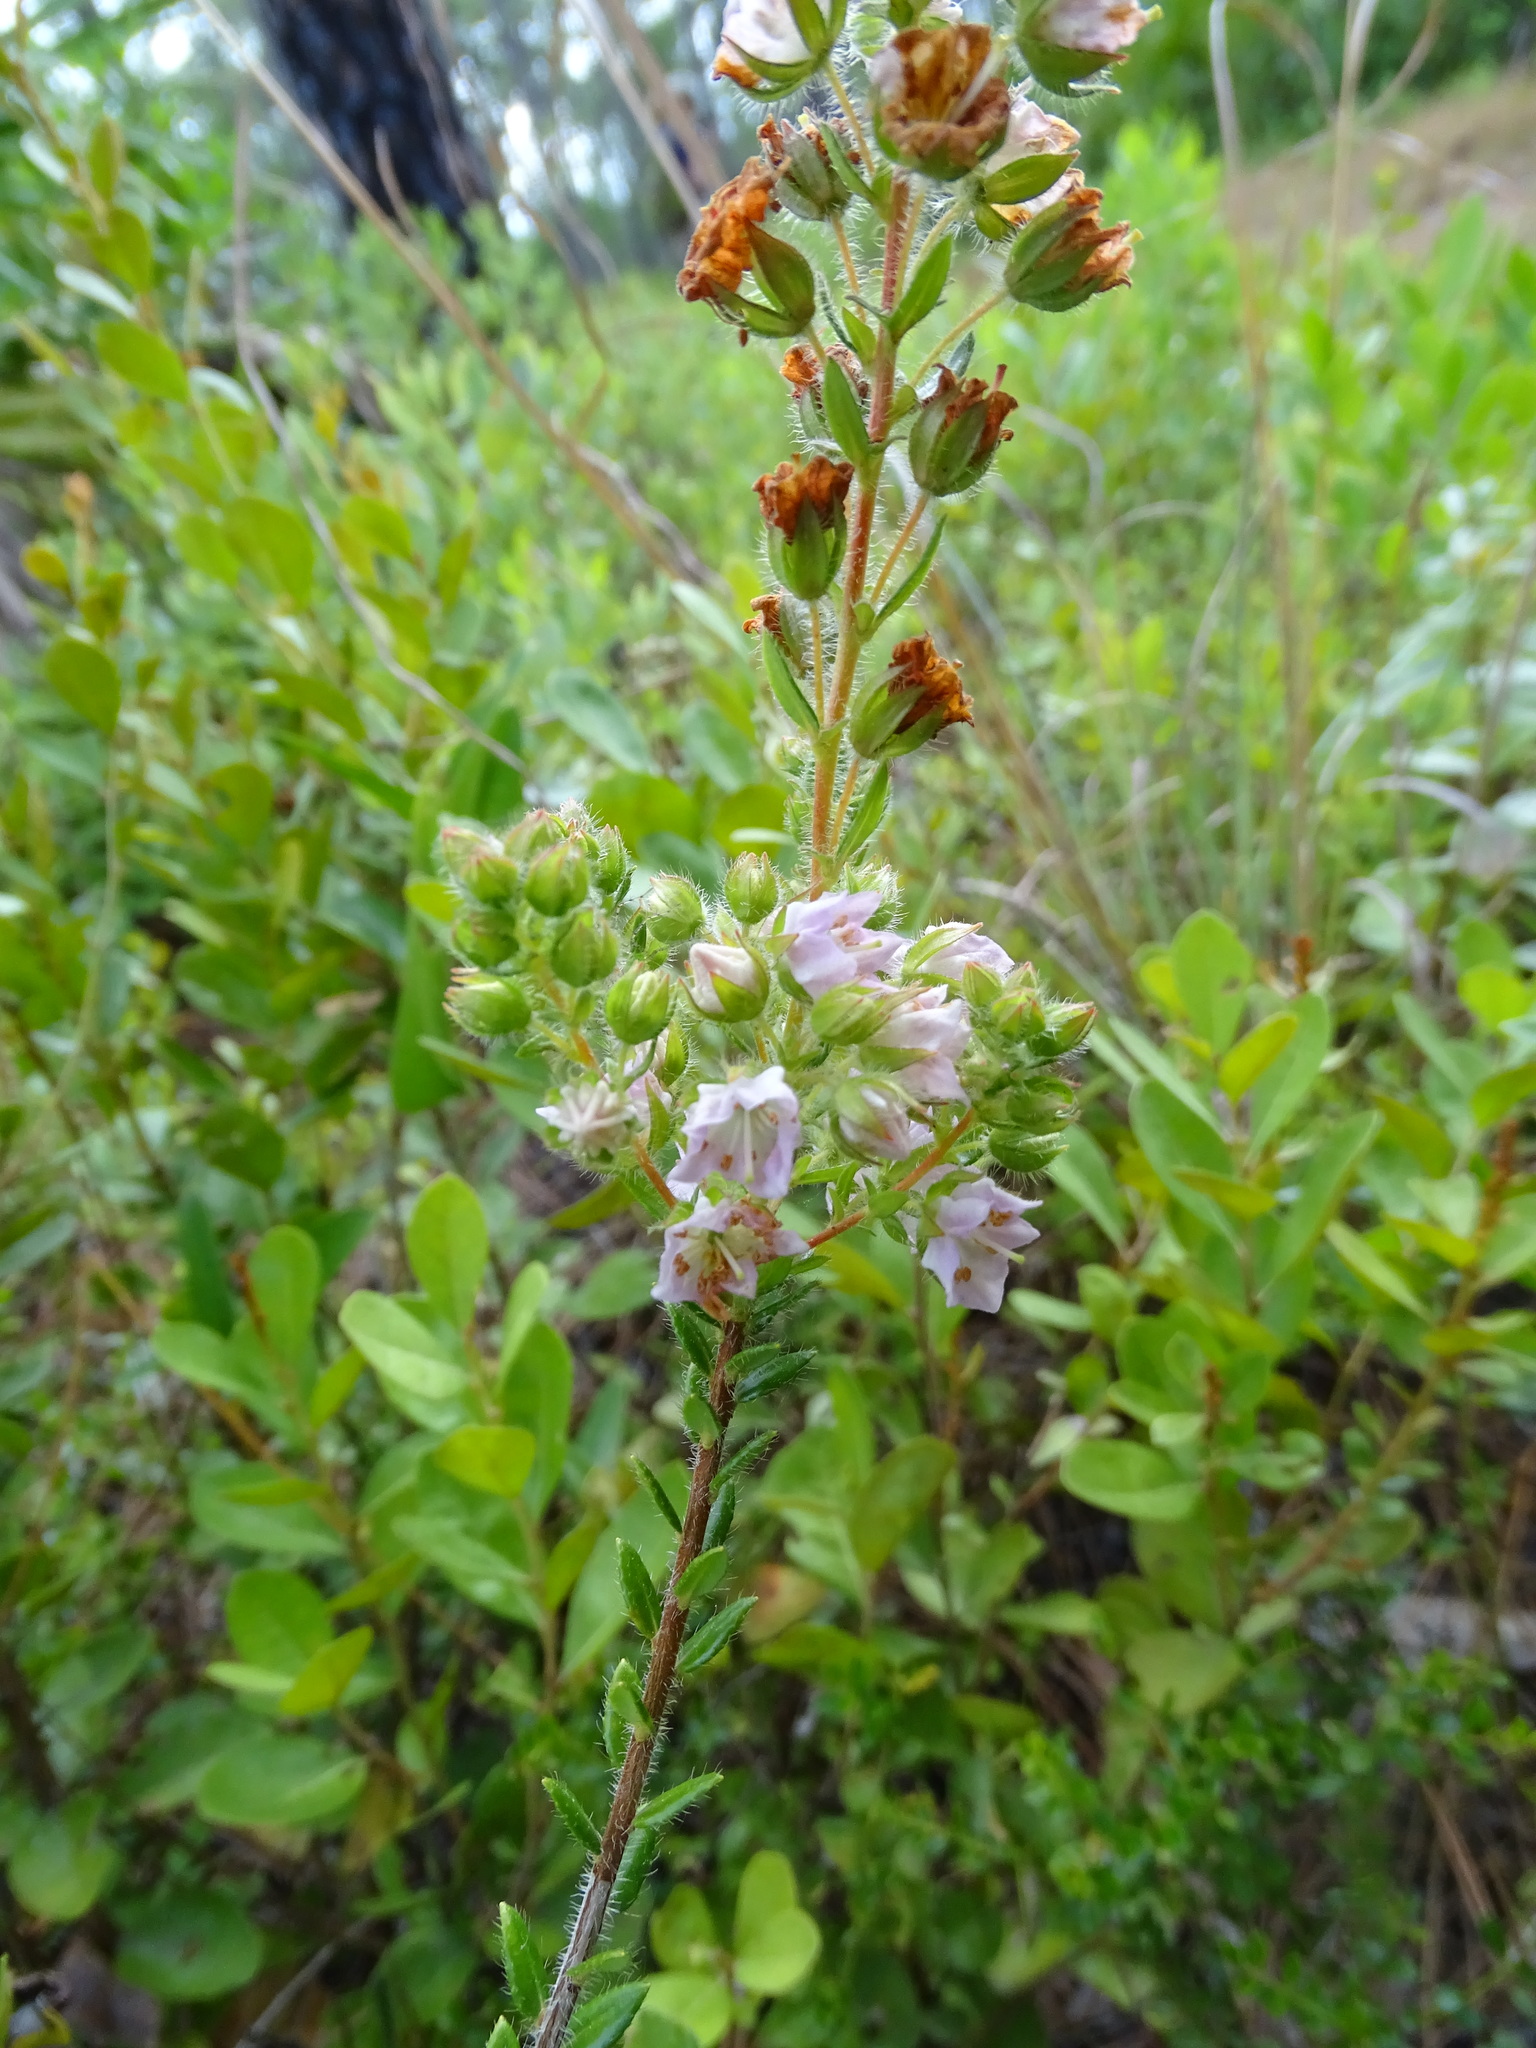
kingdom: Plantae
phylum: Tracheophyta
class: Magnoliopsida
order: Ericales
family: Ericaceae
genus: Kalmia
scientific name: Kalmia hirsuta
